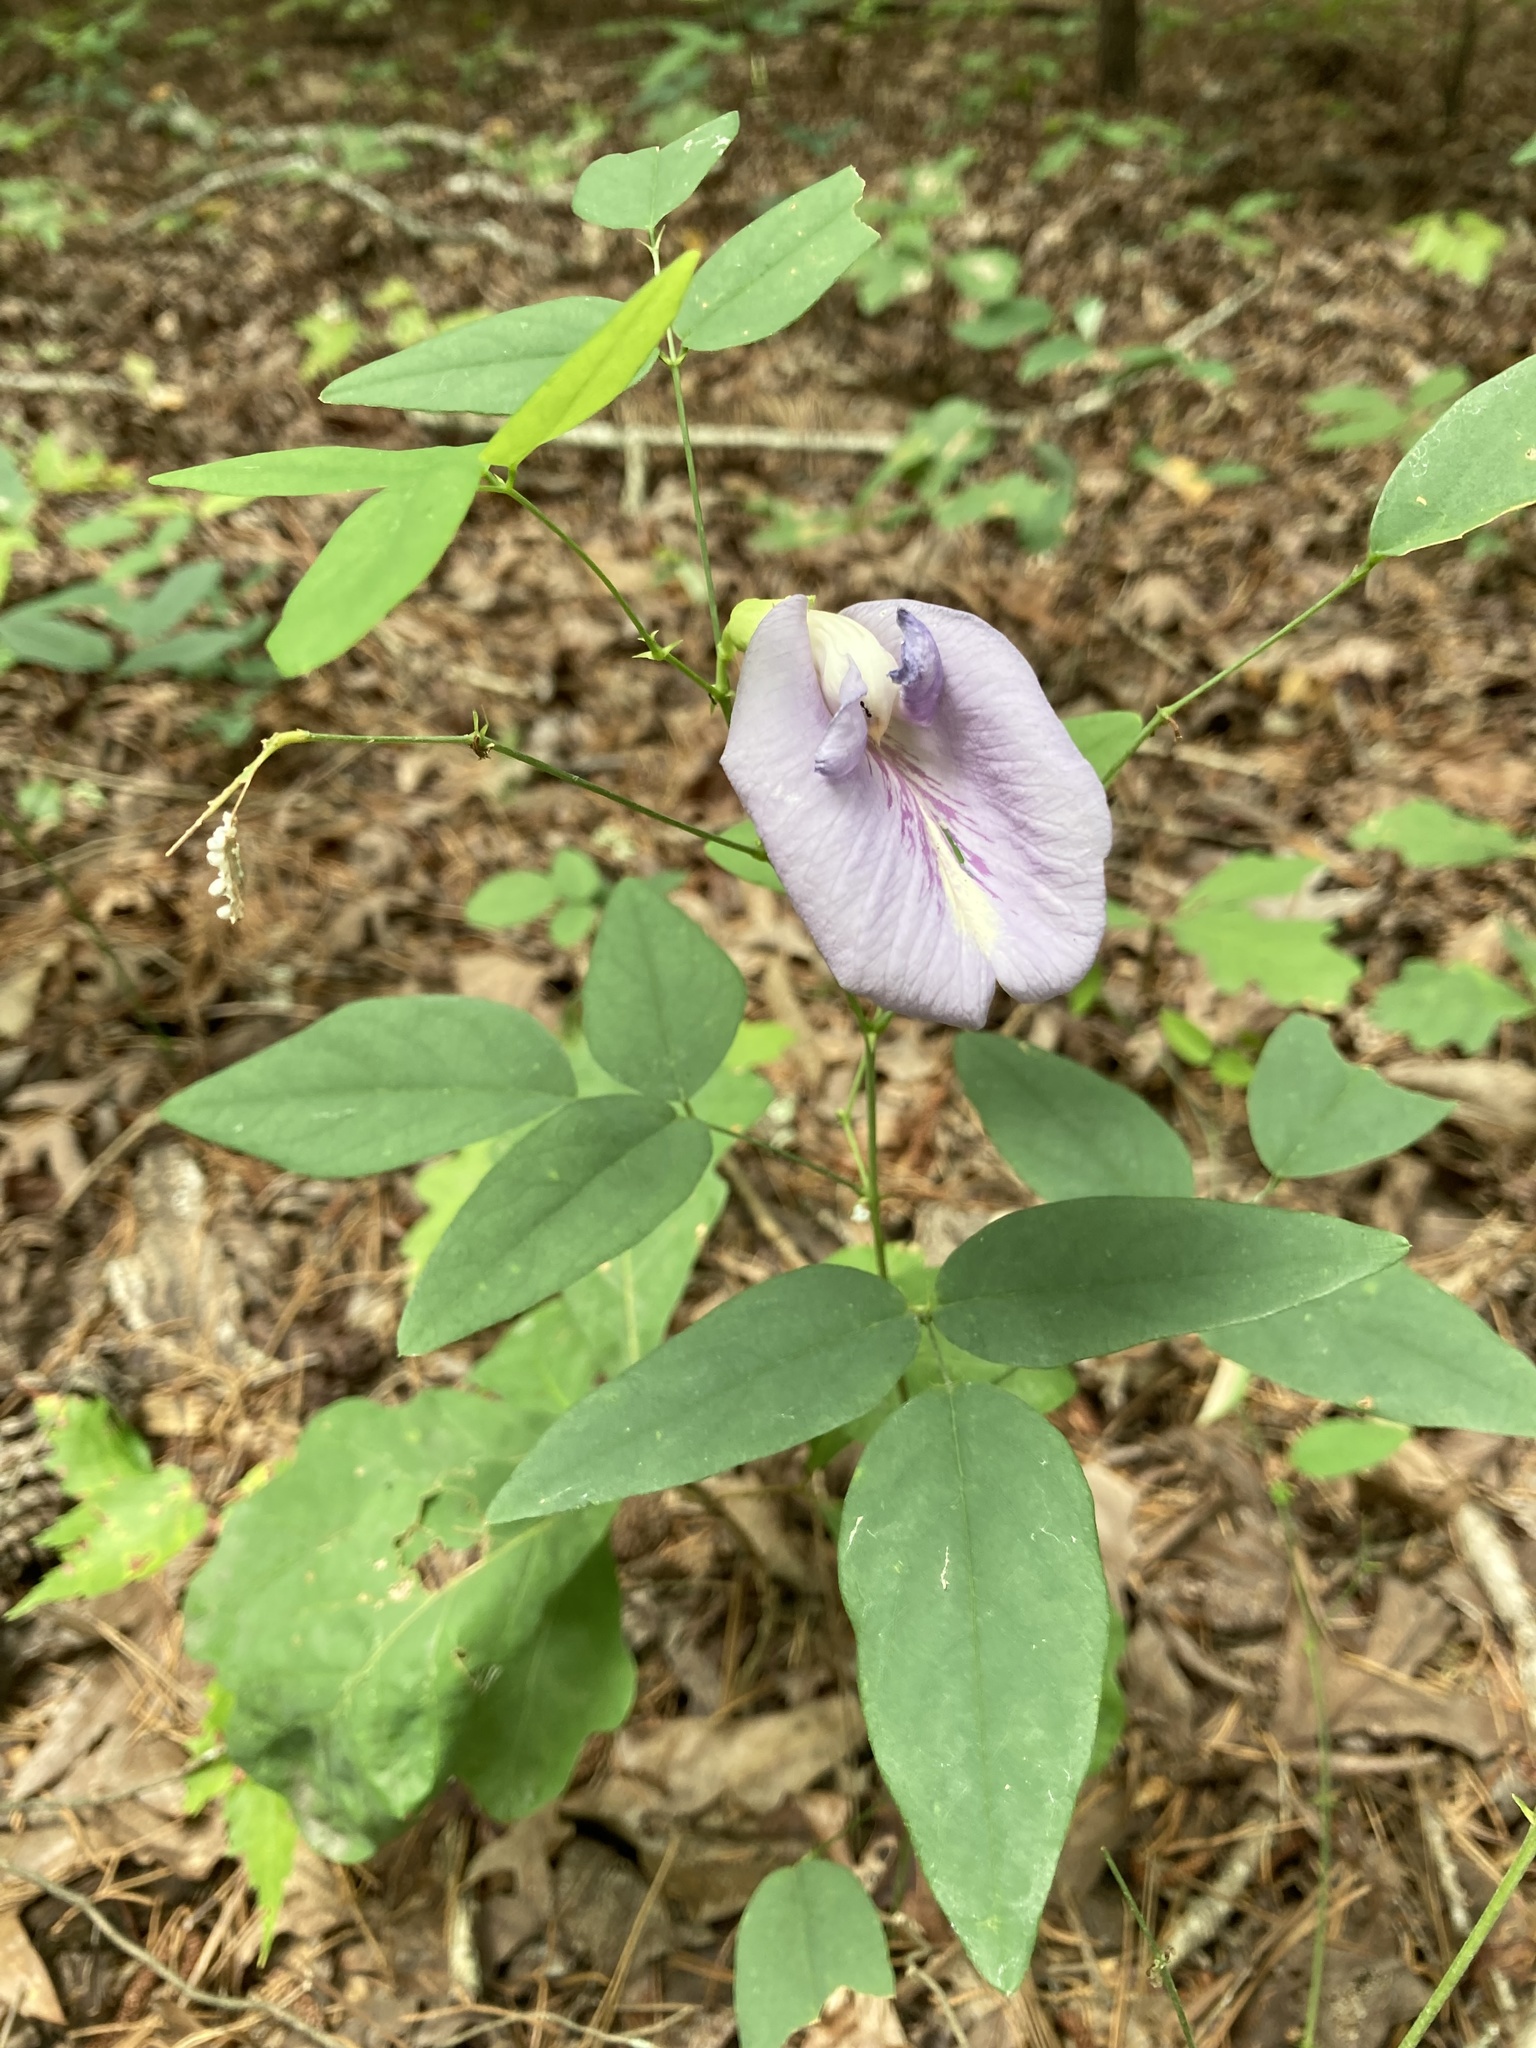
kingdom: Plantae
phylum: Tracheophyta
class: Magnoliopsida
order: Fabales
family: Fabaceae
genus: Clitoria
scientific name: Clitoria mariana
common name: Butterfly-pea
